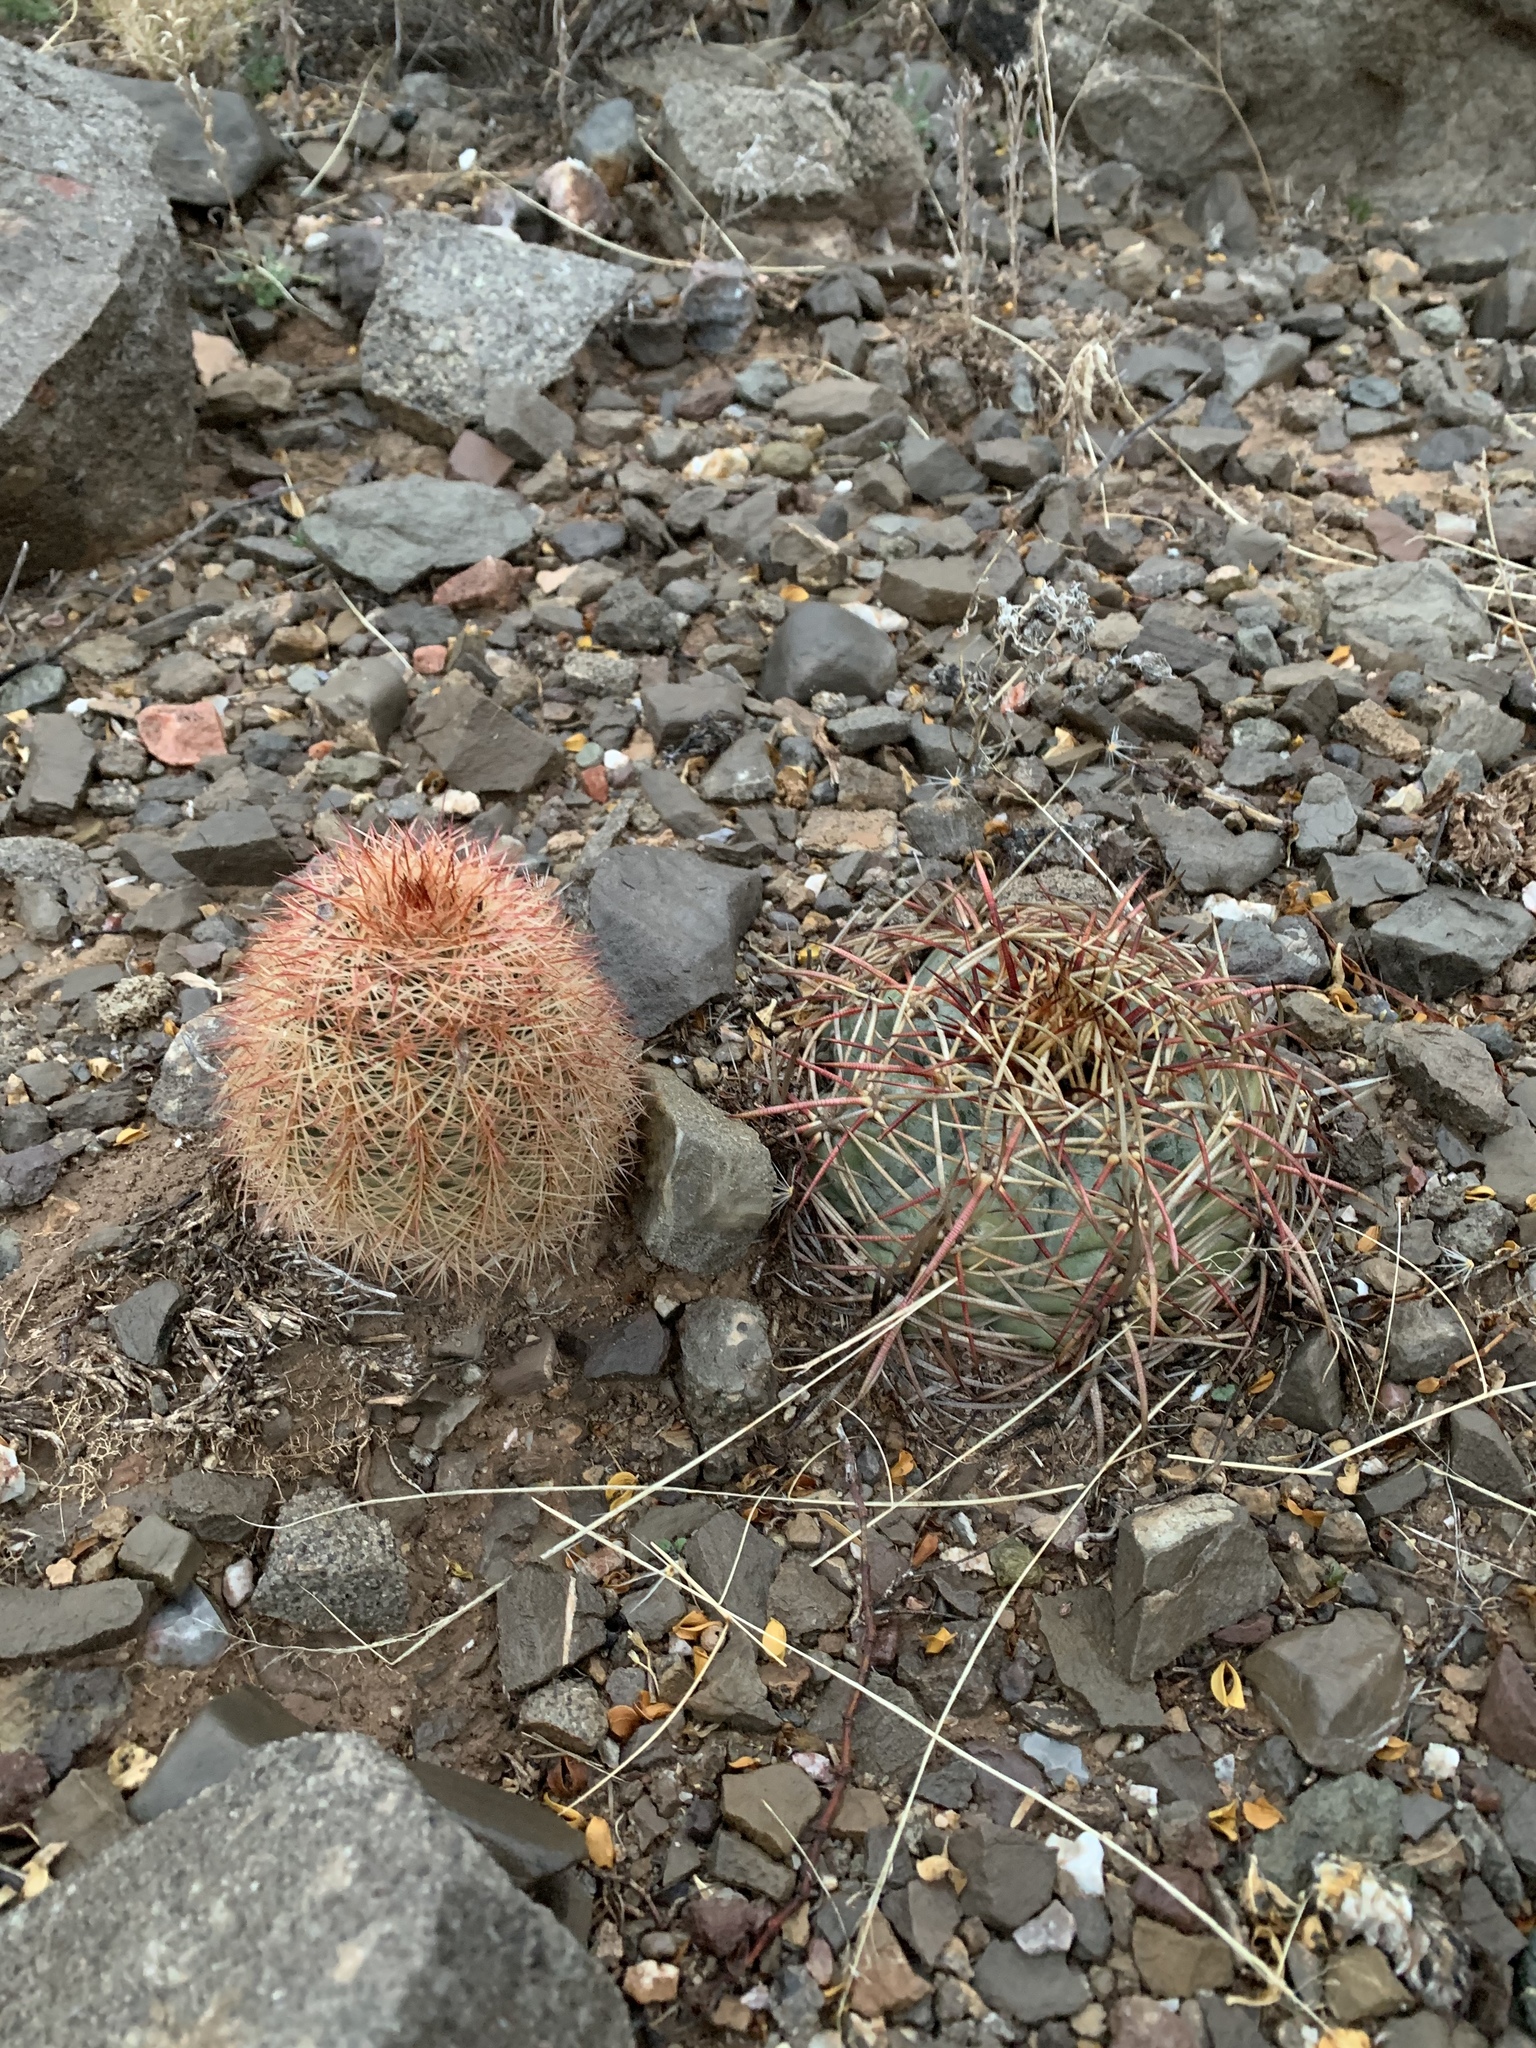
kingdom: Plantae
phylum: Tracheophyta
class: Magnoliopsida
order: Caryophyllales
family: Cactaceae
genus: Echinocereus
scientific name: Echinocereus dasyacanthus
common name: Spiny hedgehog cactus
